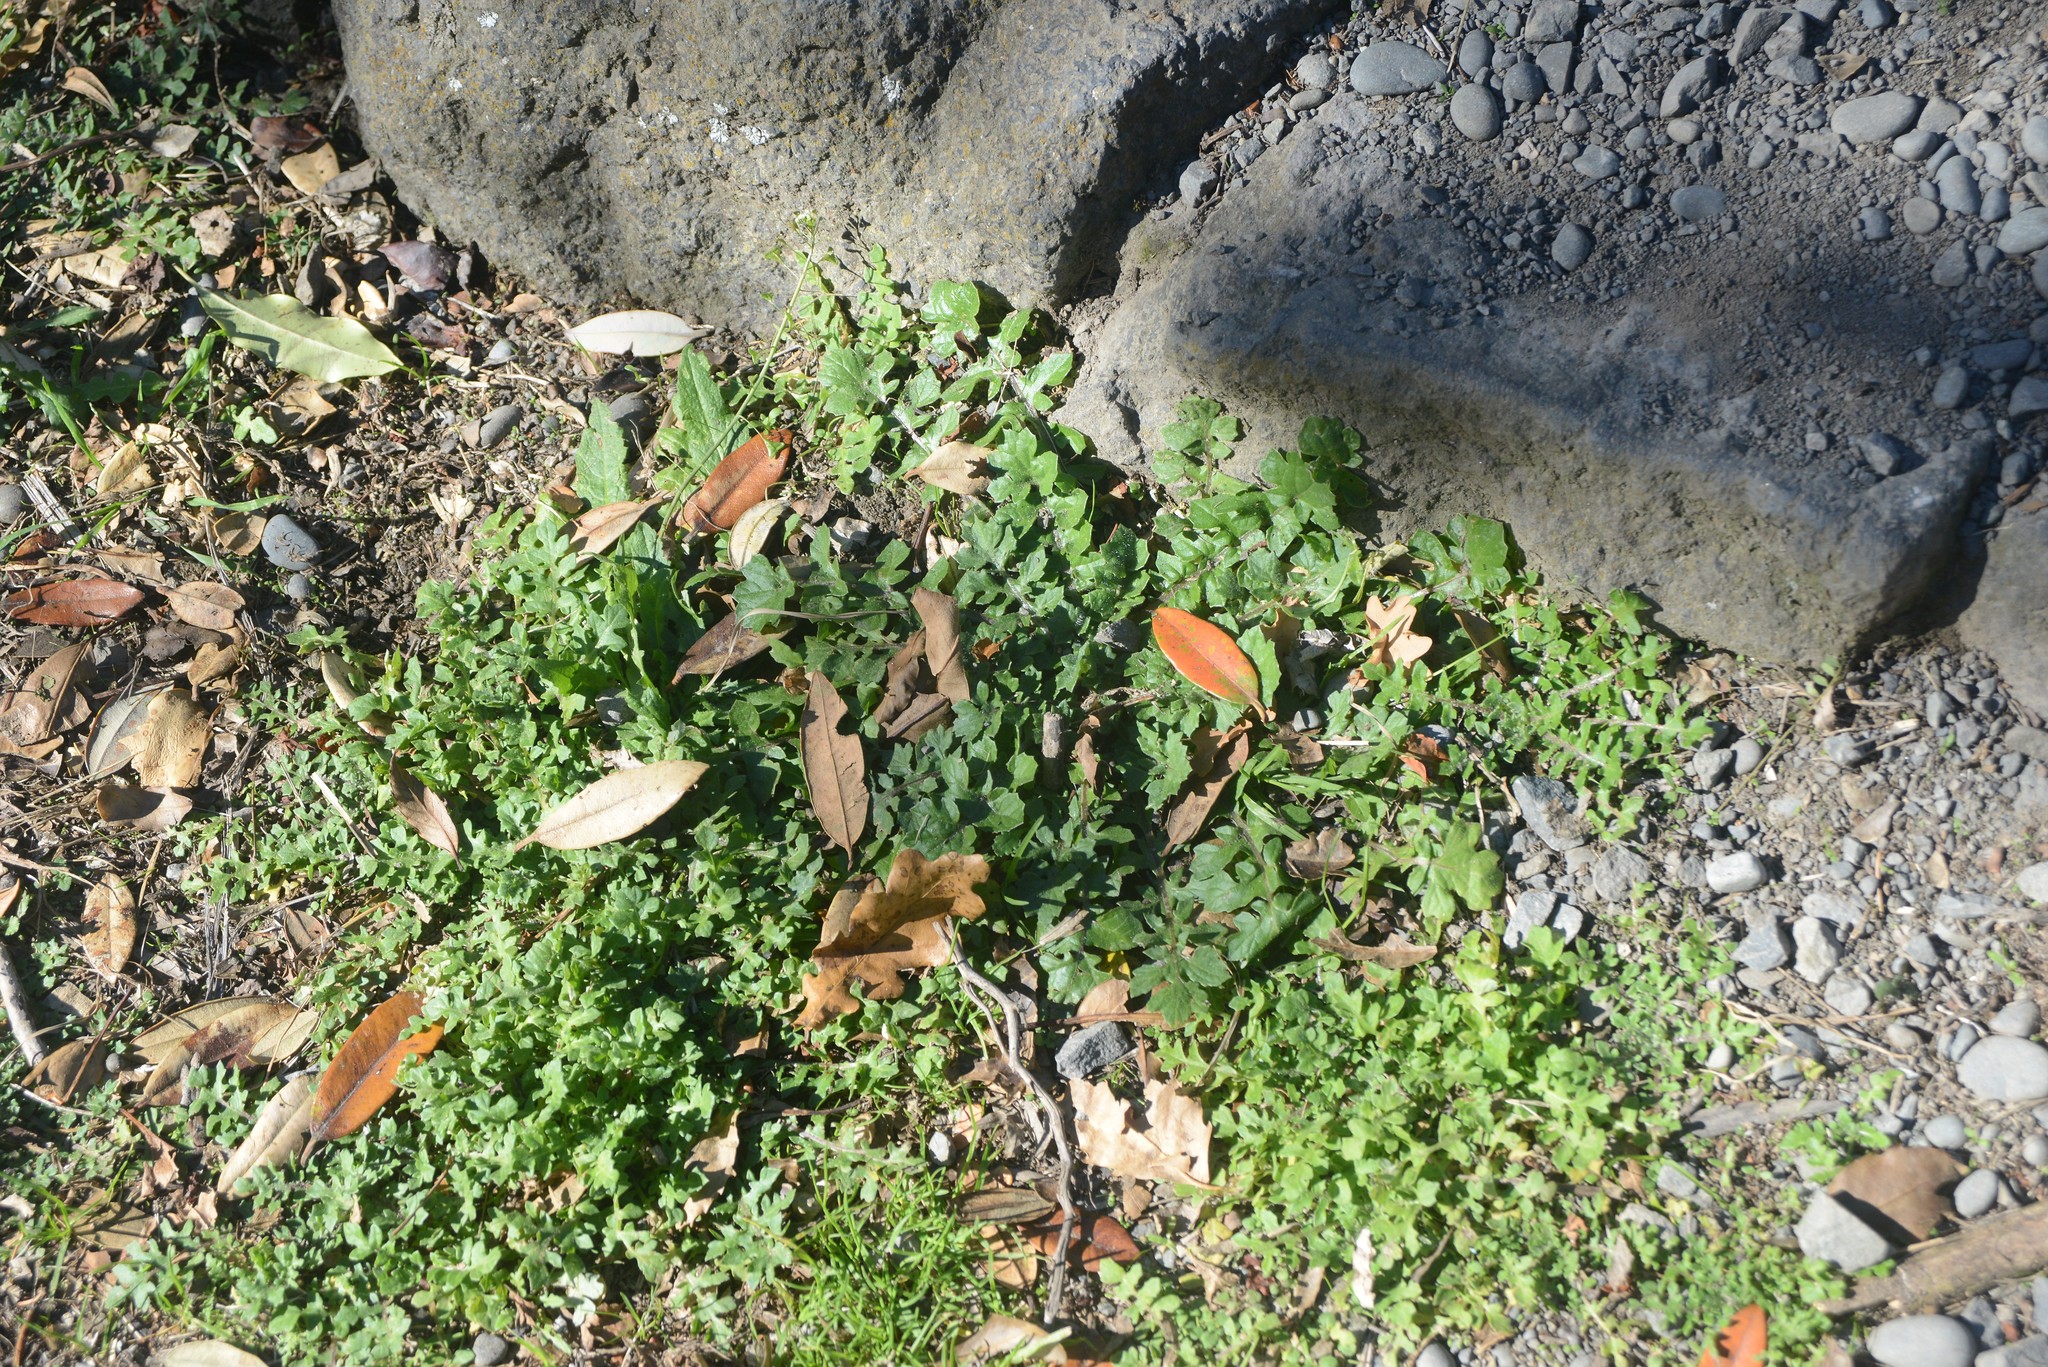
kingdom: Plantae
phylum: Tracheophyta
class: Magnoliopsida
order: Asterales
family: Asteraceae
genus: Arctotheca
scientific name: Arctotheca calendula
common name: Capeweed
